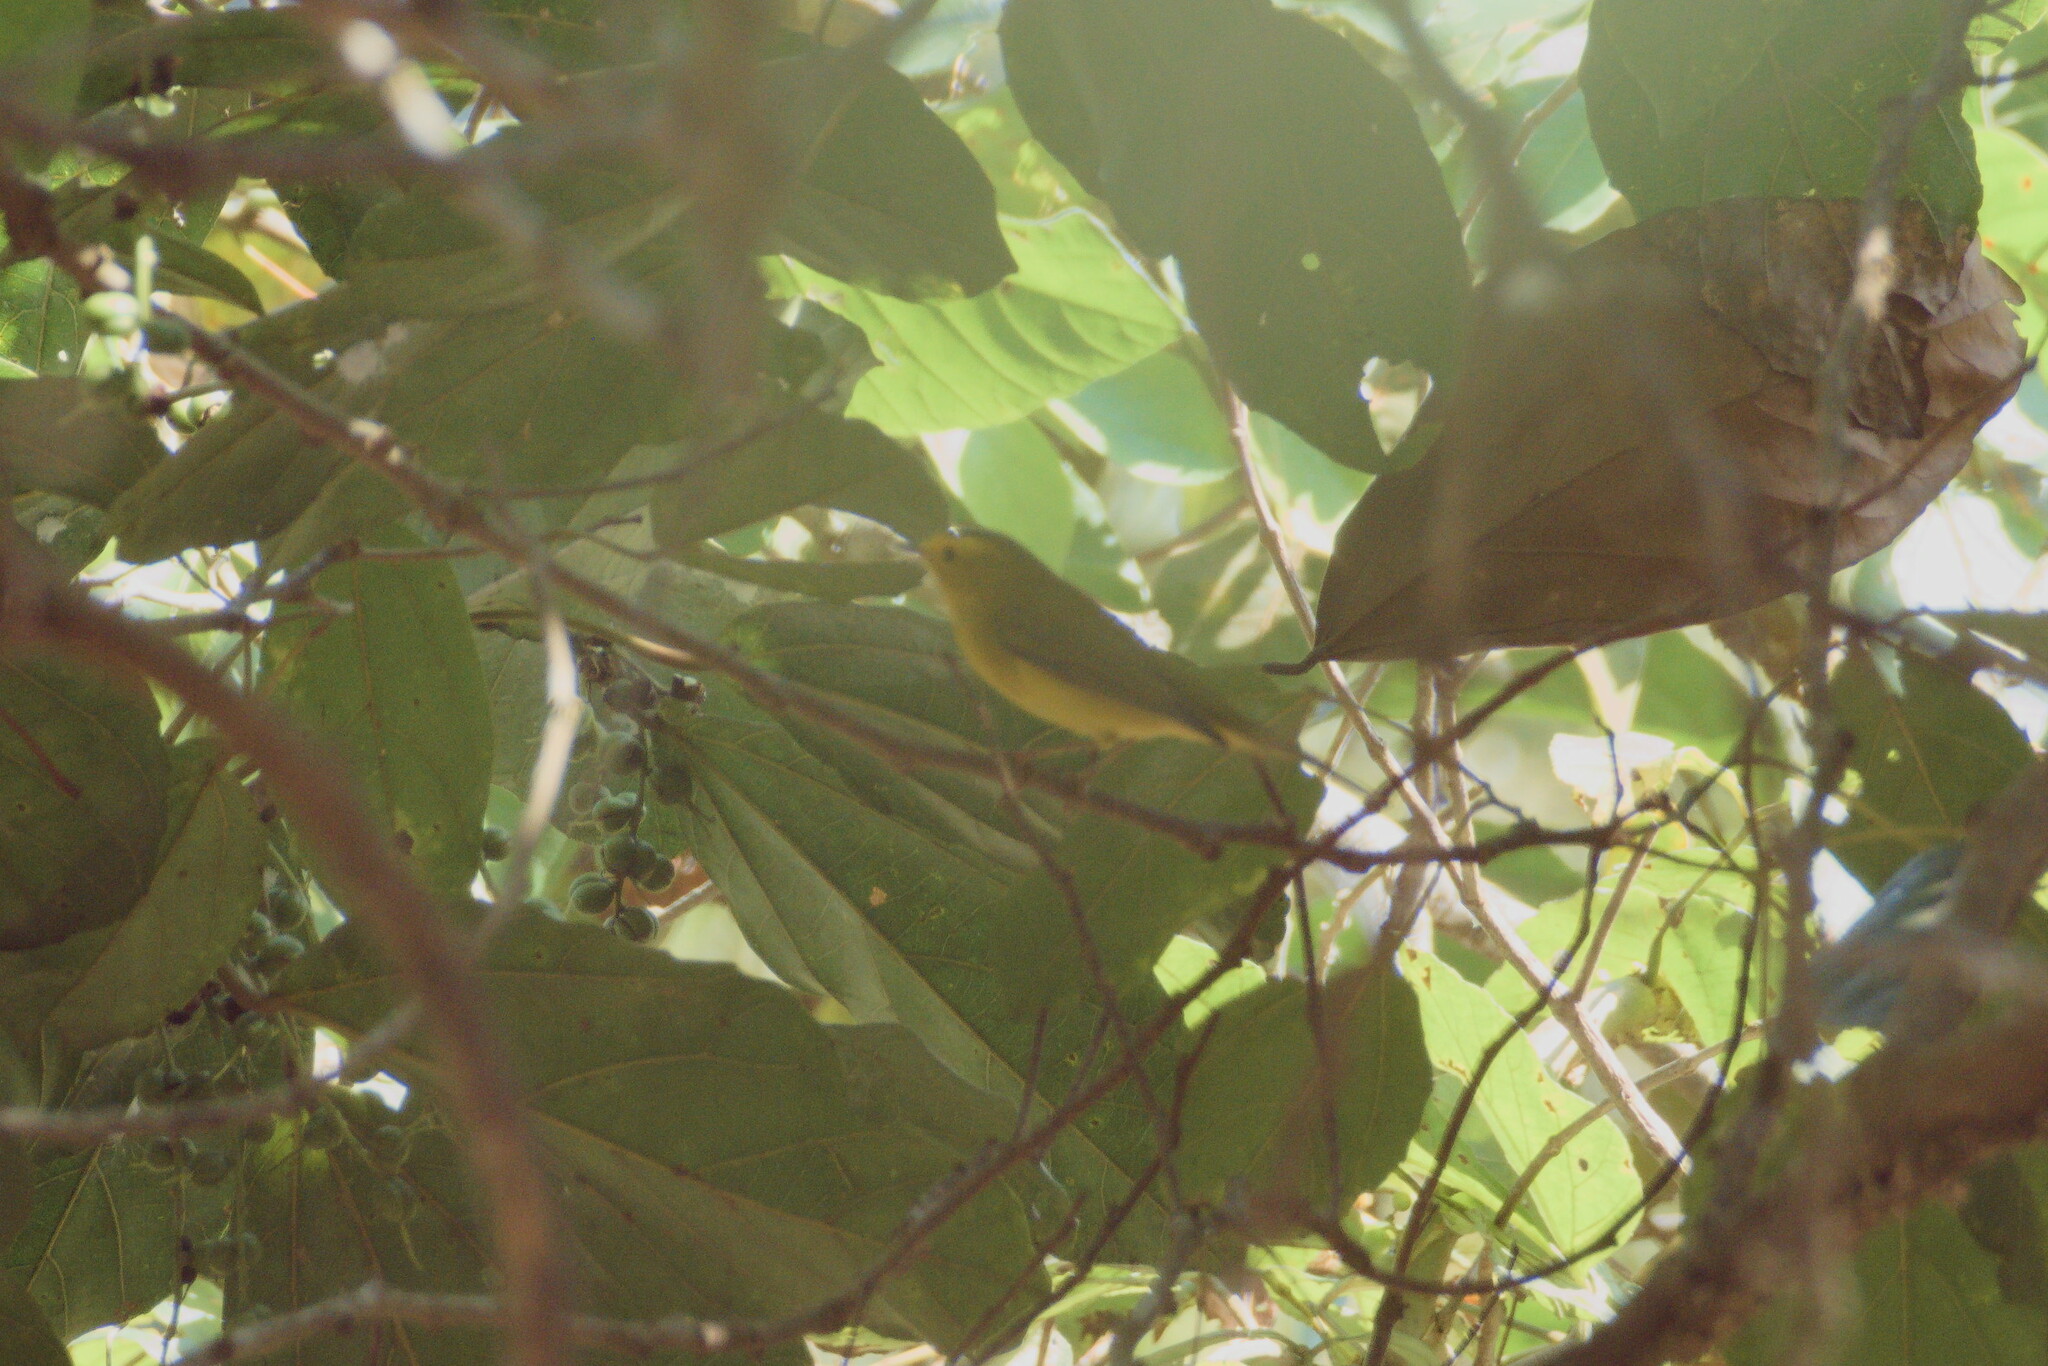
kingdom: Animalia
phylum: Chordata
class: Aves
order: Passeriformes
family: Parulidae
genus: Cardellina
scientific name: Cardellina pusilla
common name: Wilson's warbler
